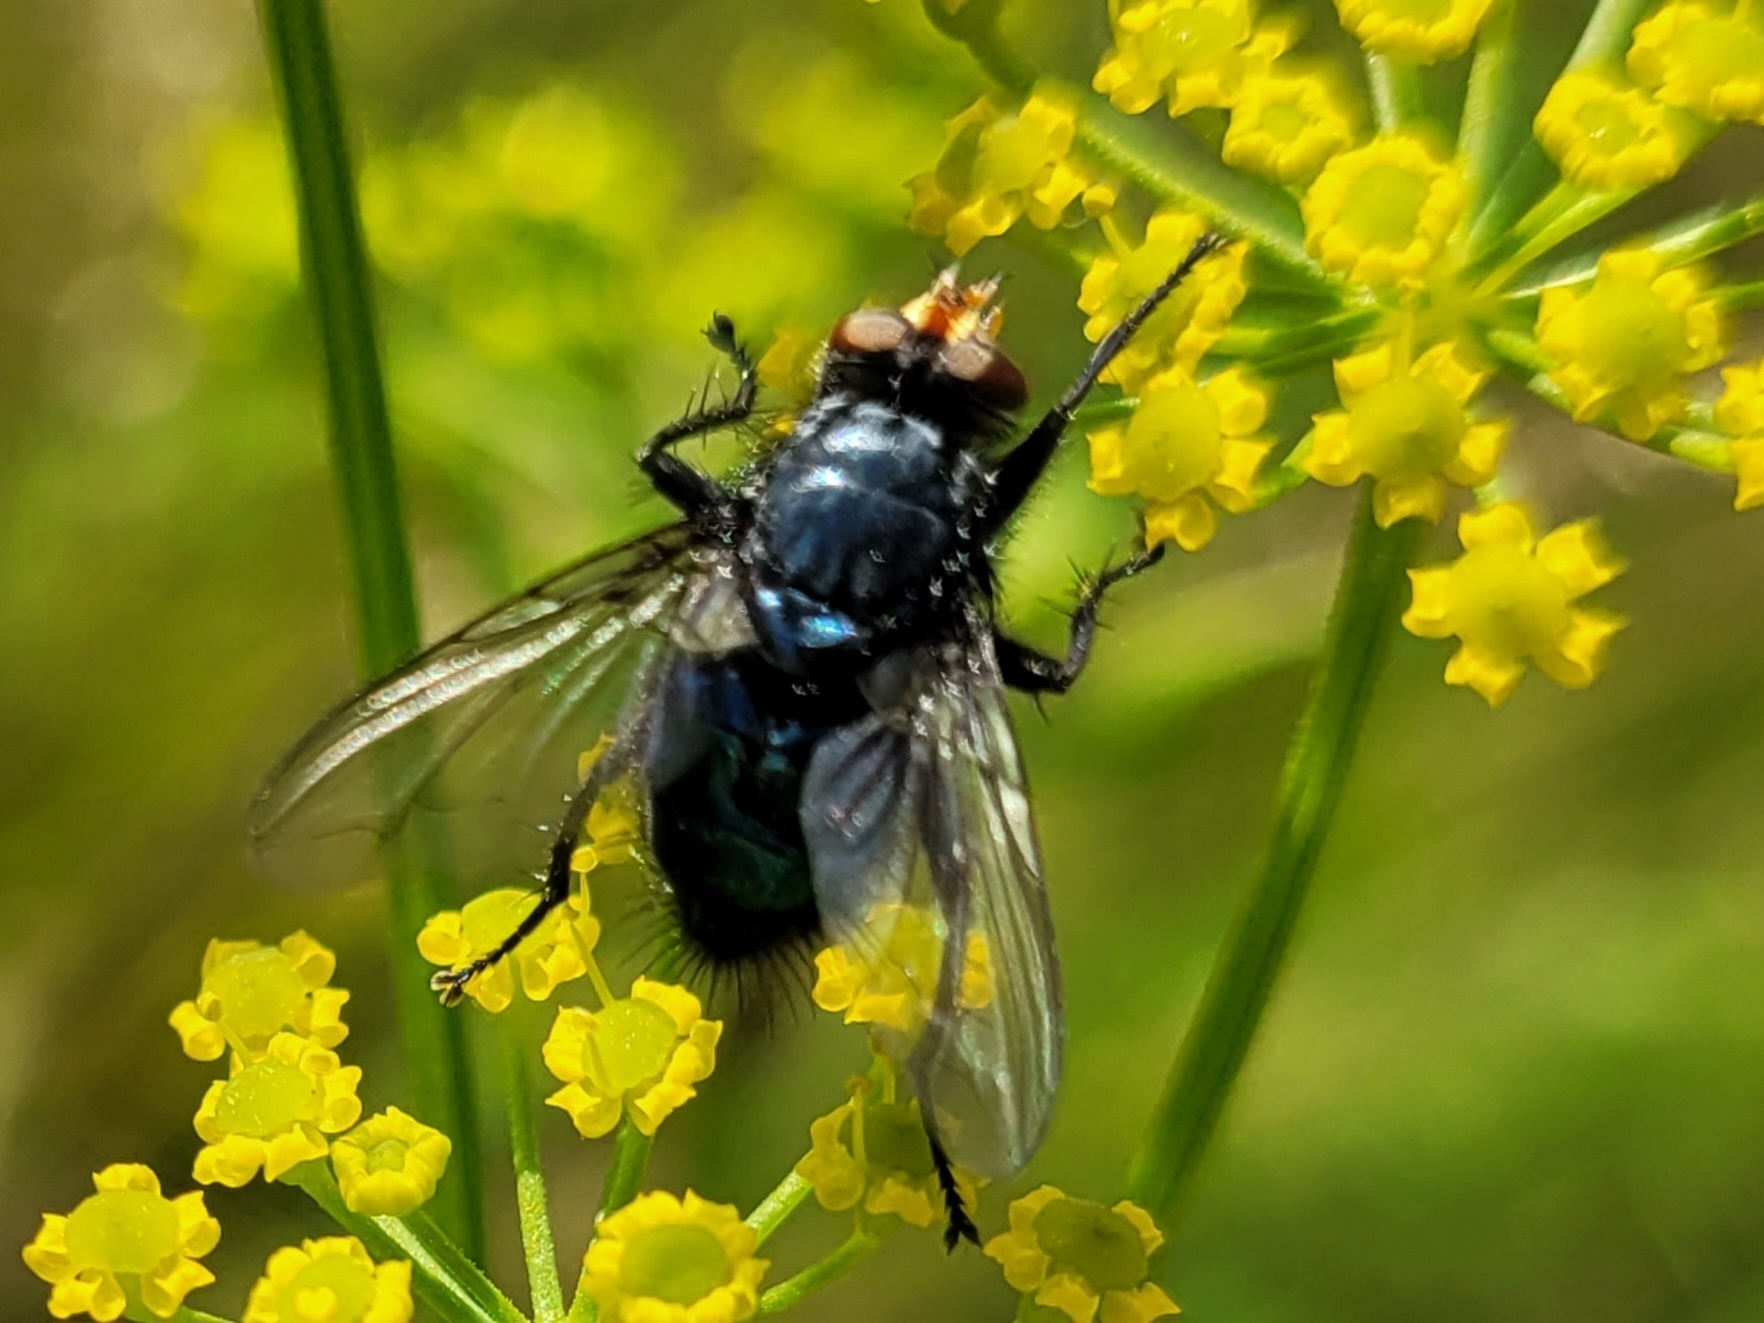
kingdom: Animalia
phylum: Arthropoda
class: Insecta
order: Diptera
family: Calliphoridae
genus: Cynomya
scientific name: Cynomya mortuorum
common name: Bluebottle blow fly
